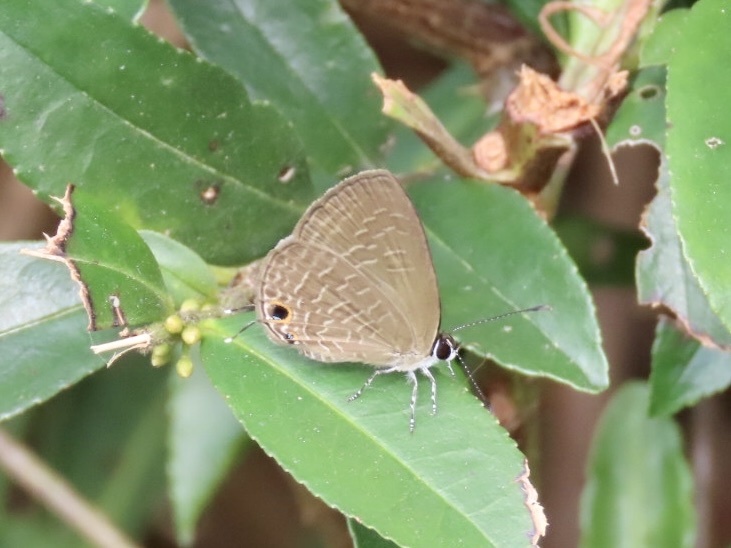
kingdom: Animalia
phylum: Arthropoda
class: Insecta
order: Lepidoptera
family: Lycaenidae
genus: Jamides
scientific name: Jamides bochus
